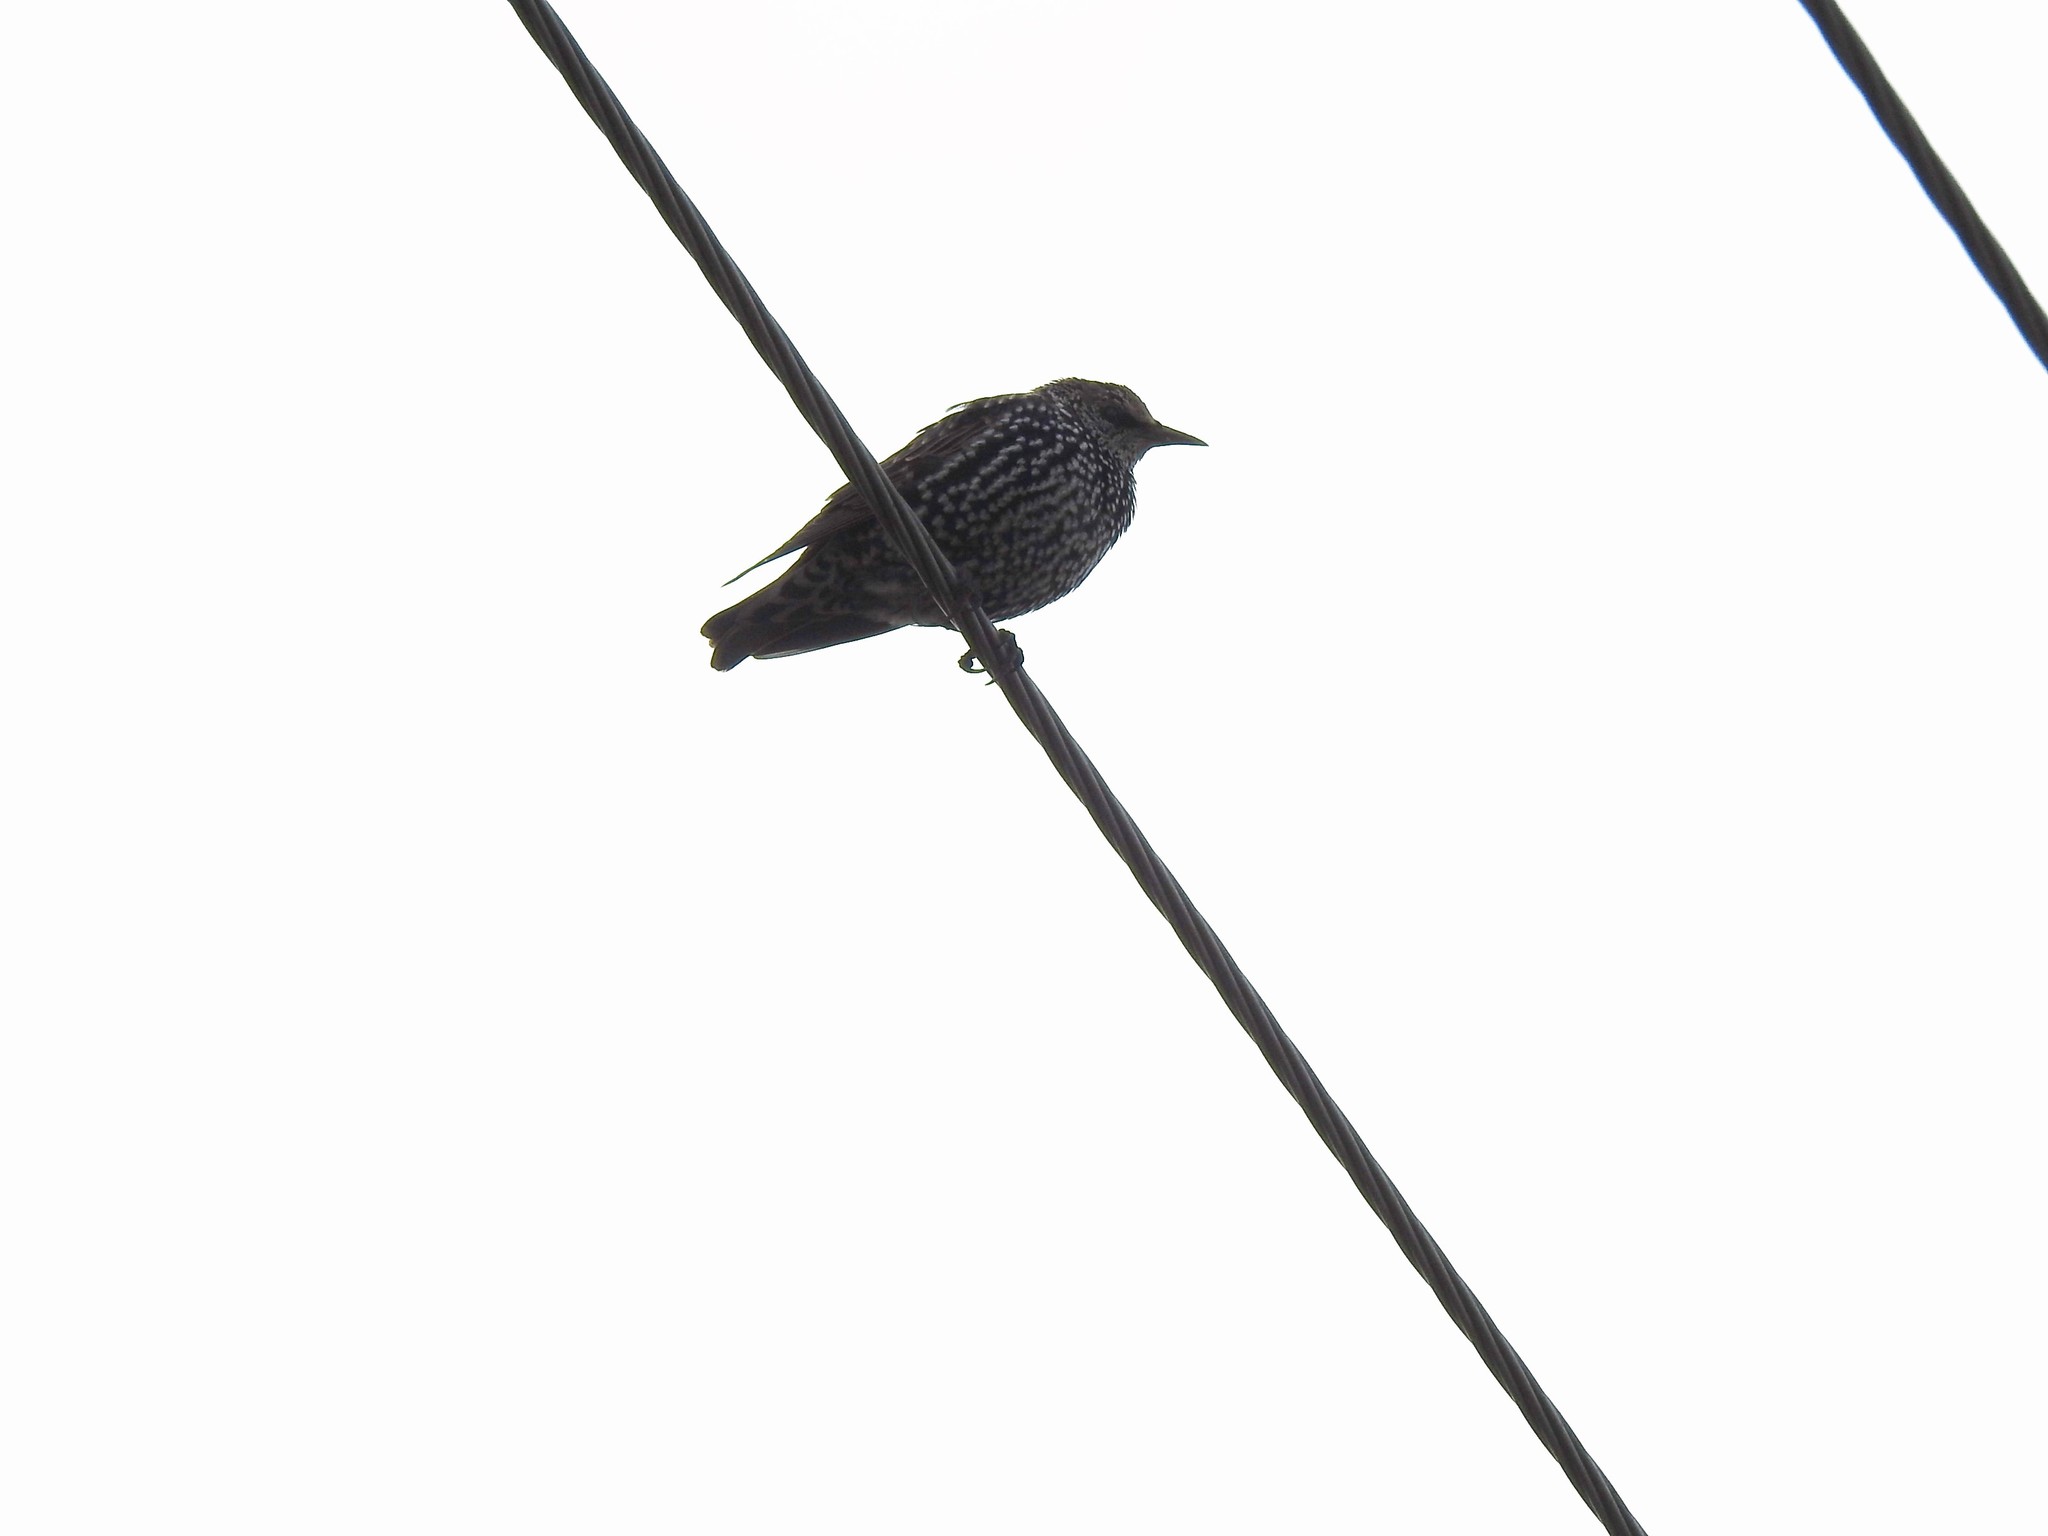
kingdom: Animalia
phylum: Chordata
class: Aves
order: Passeriformes
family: Sturnidae
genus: Sturnus
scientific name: Sturnus vulgaris
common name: Common starling
